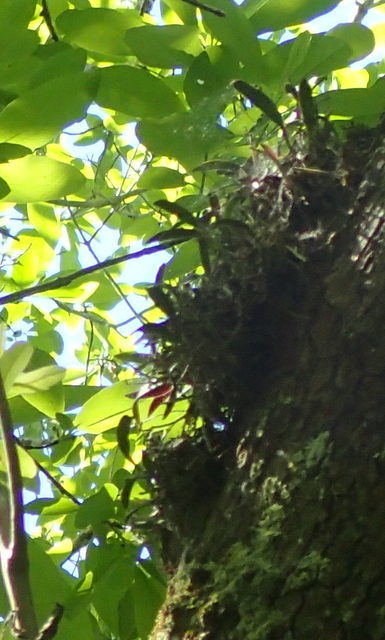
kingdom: Plantae
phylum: Tracheophyta
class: Liliopsida
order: Asparagales
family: Orchidaceae
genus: Epidendrum
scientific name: Epidendrum conopseum
